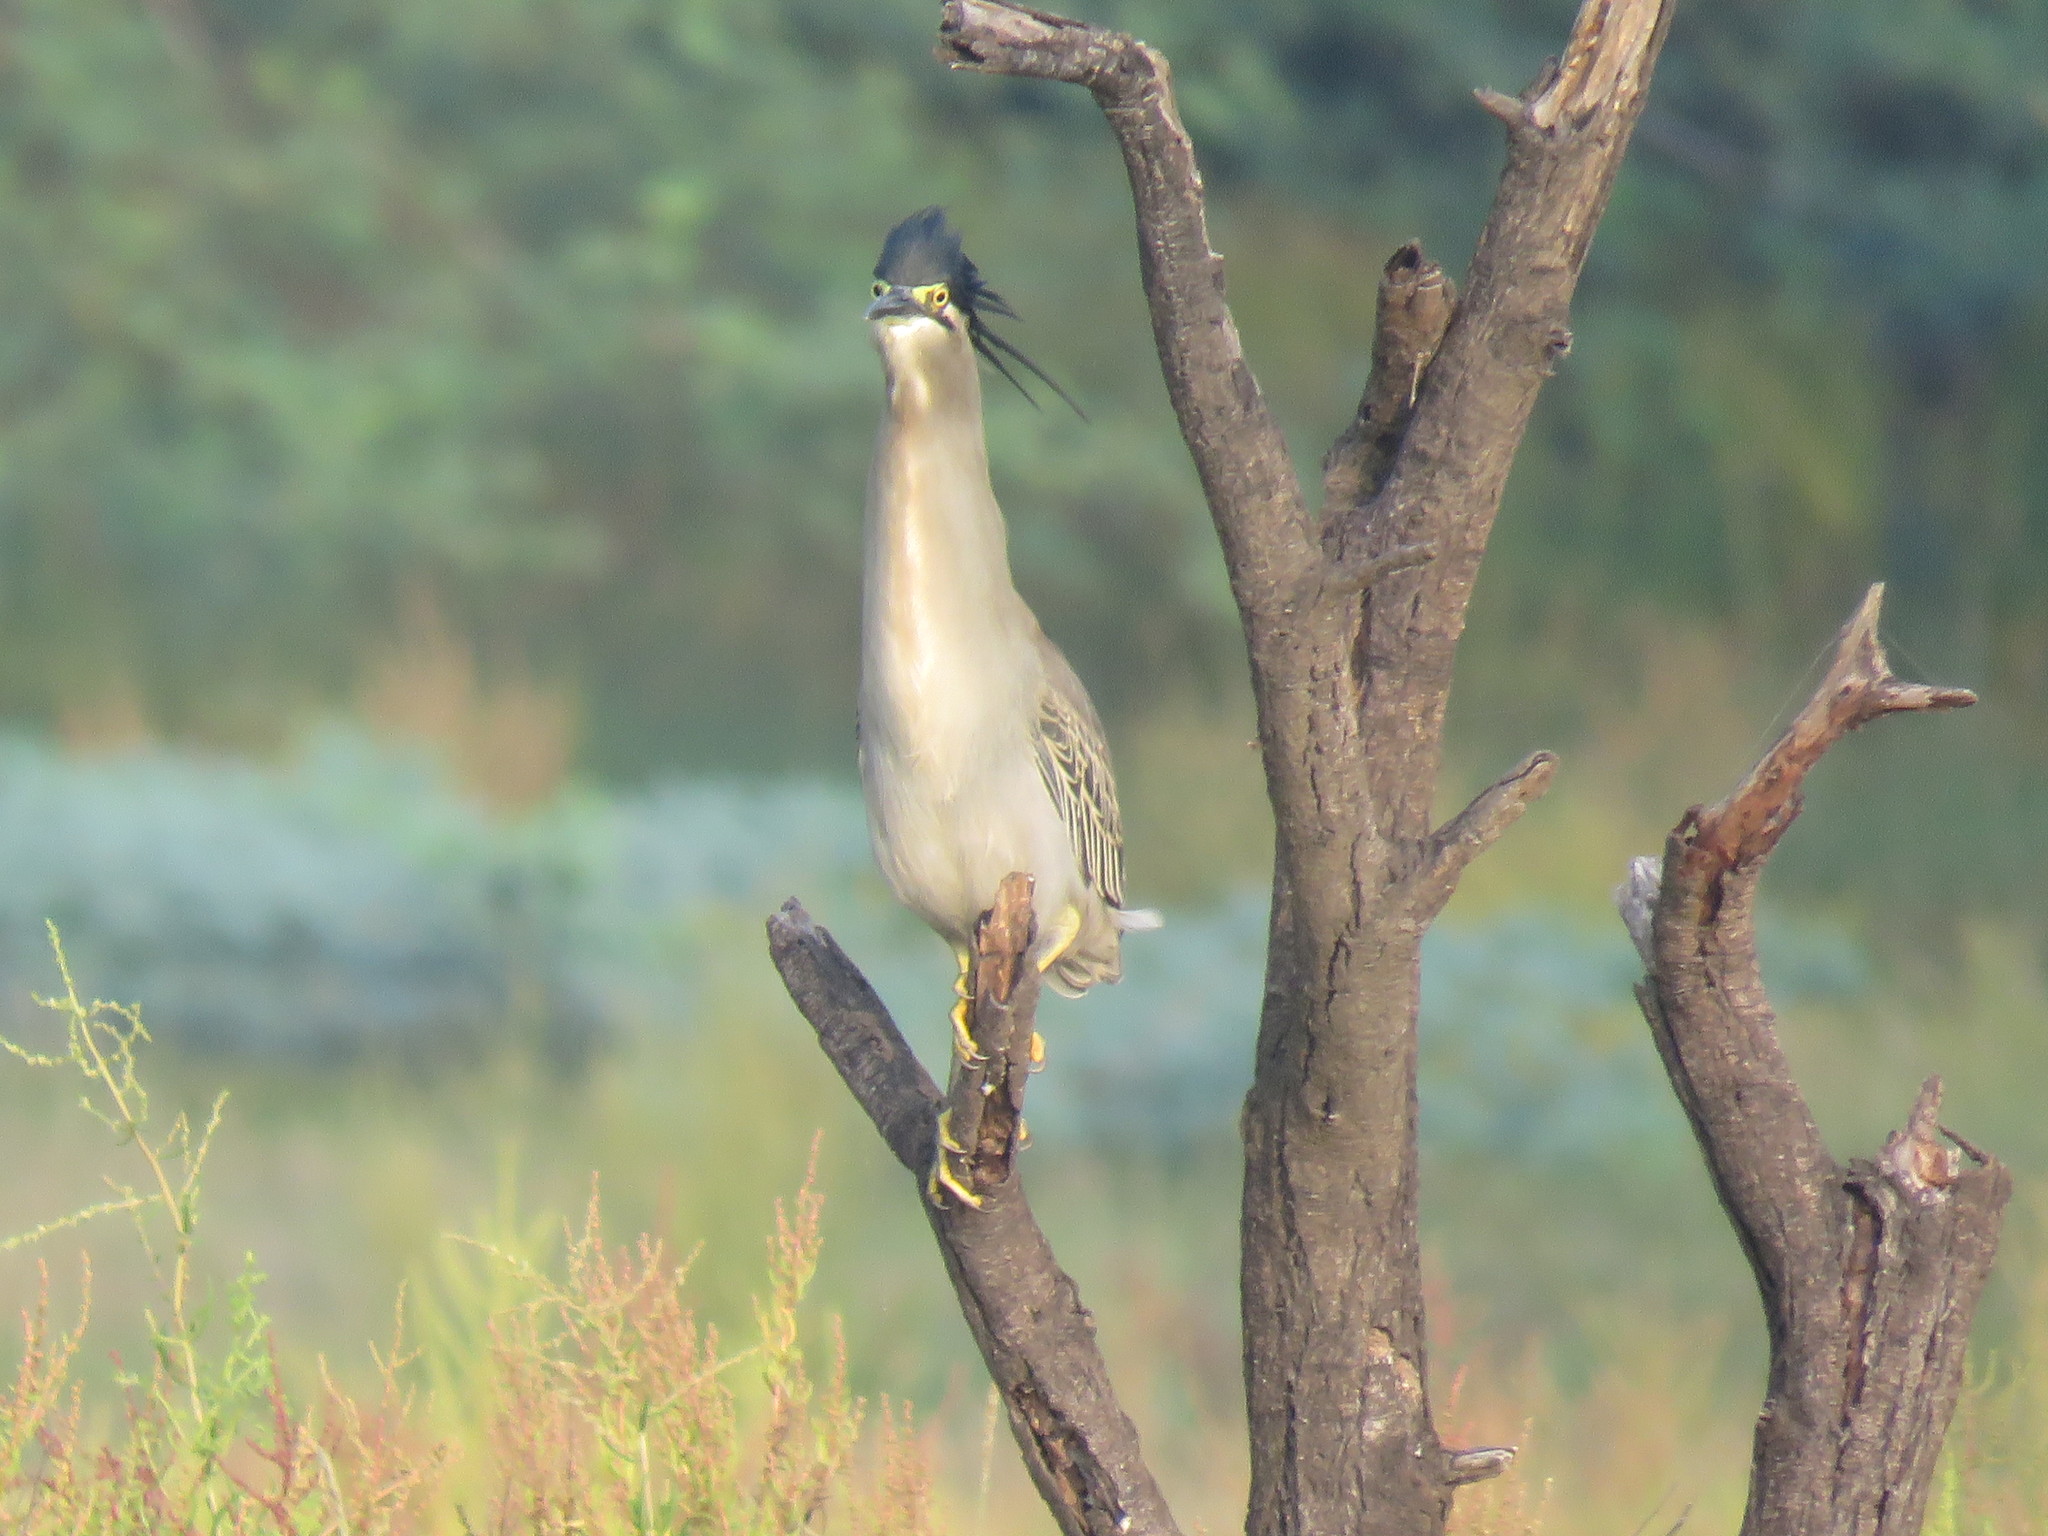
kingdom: Animalia
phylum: Chordata
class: Aves
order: Pelecaniformes
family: Ardeidae
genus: Butorides
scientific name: Butorides striata
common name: Striated heron
